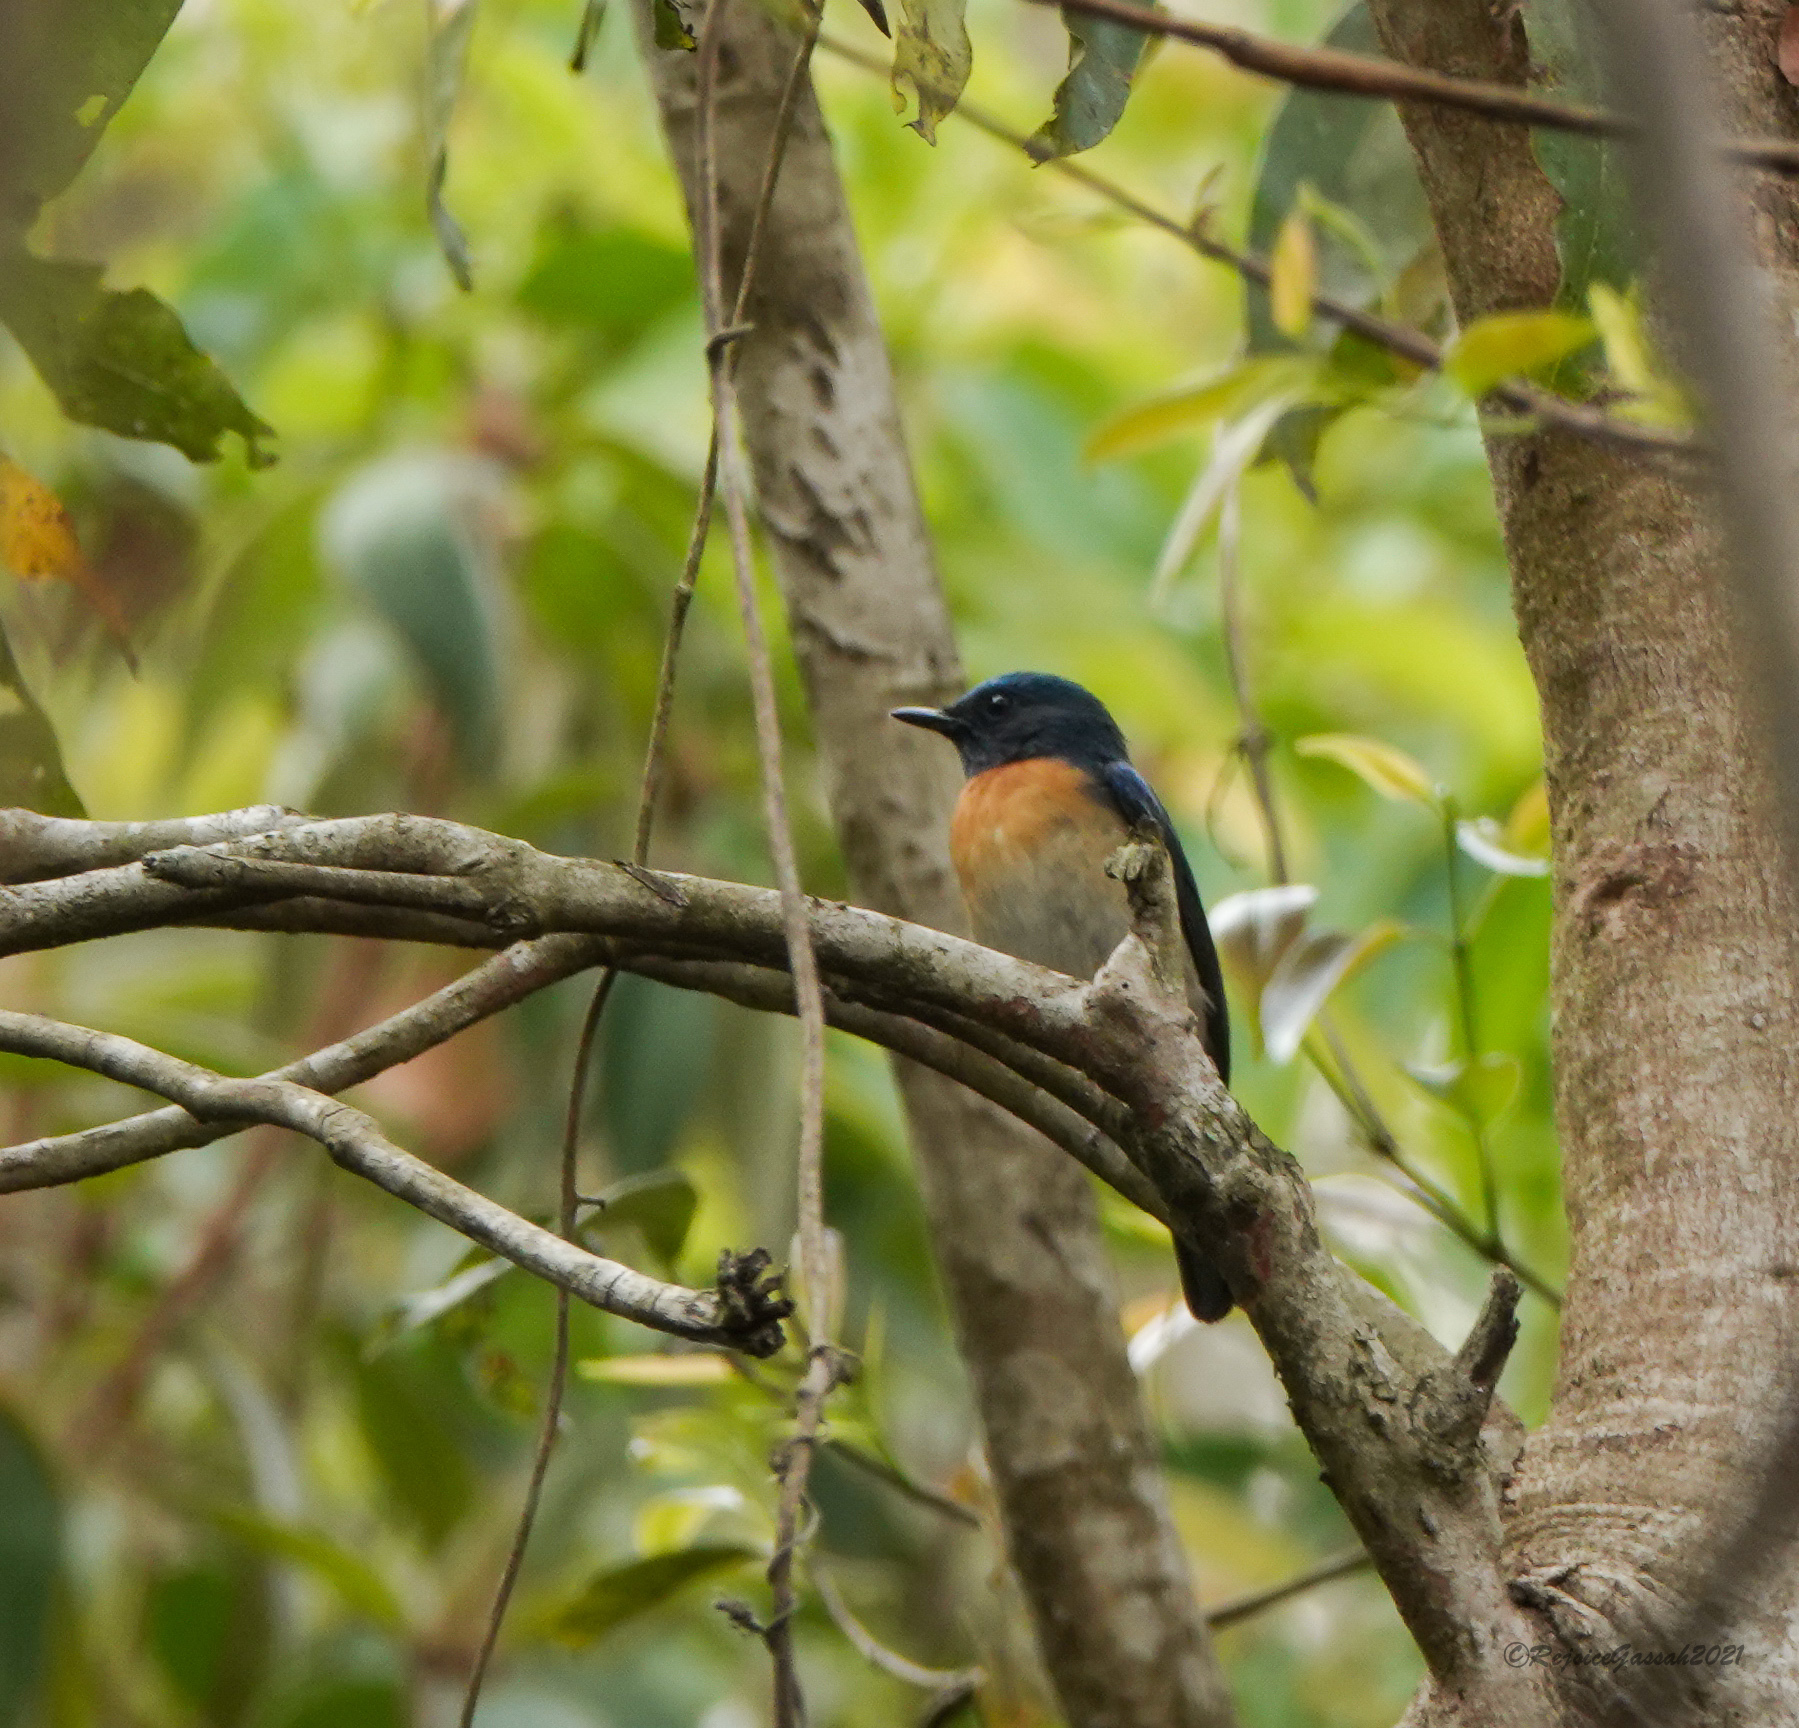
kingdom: Animalia
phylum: Chordata
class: Aves
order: Passeriformes
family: Muscicapidae
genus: Cyornis
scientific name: Cyornis rubeculoides
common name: Blue-throated blue flycatcher
